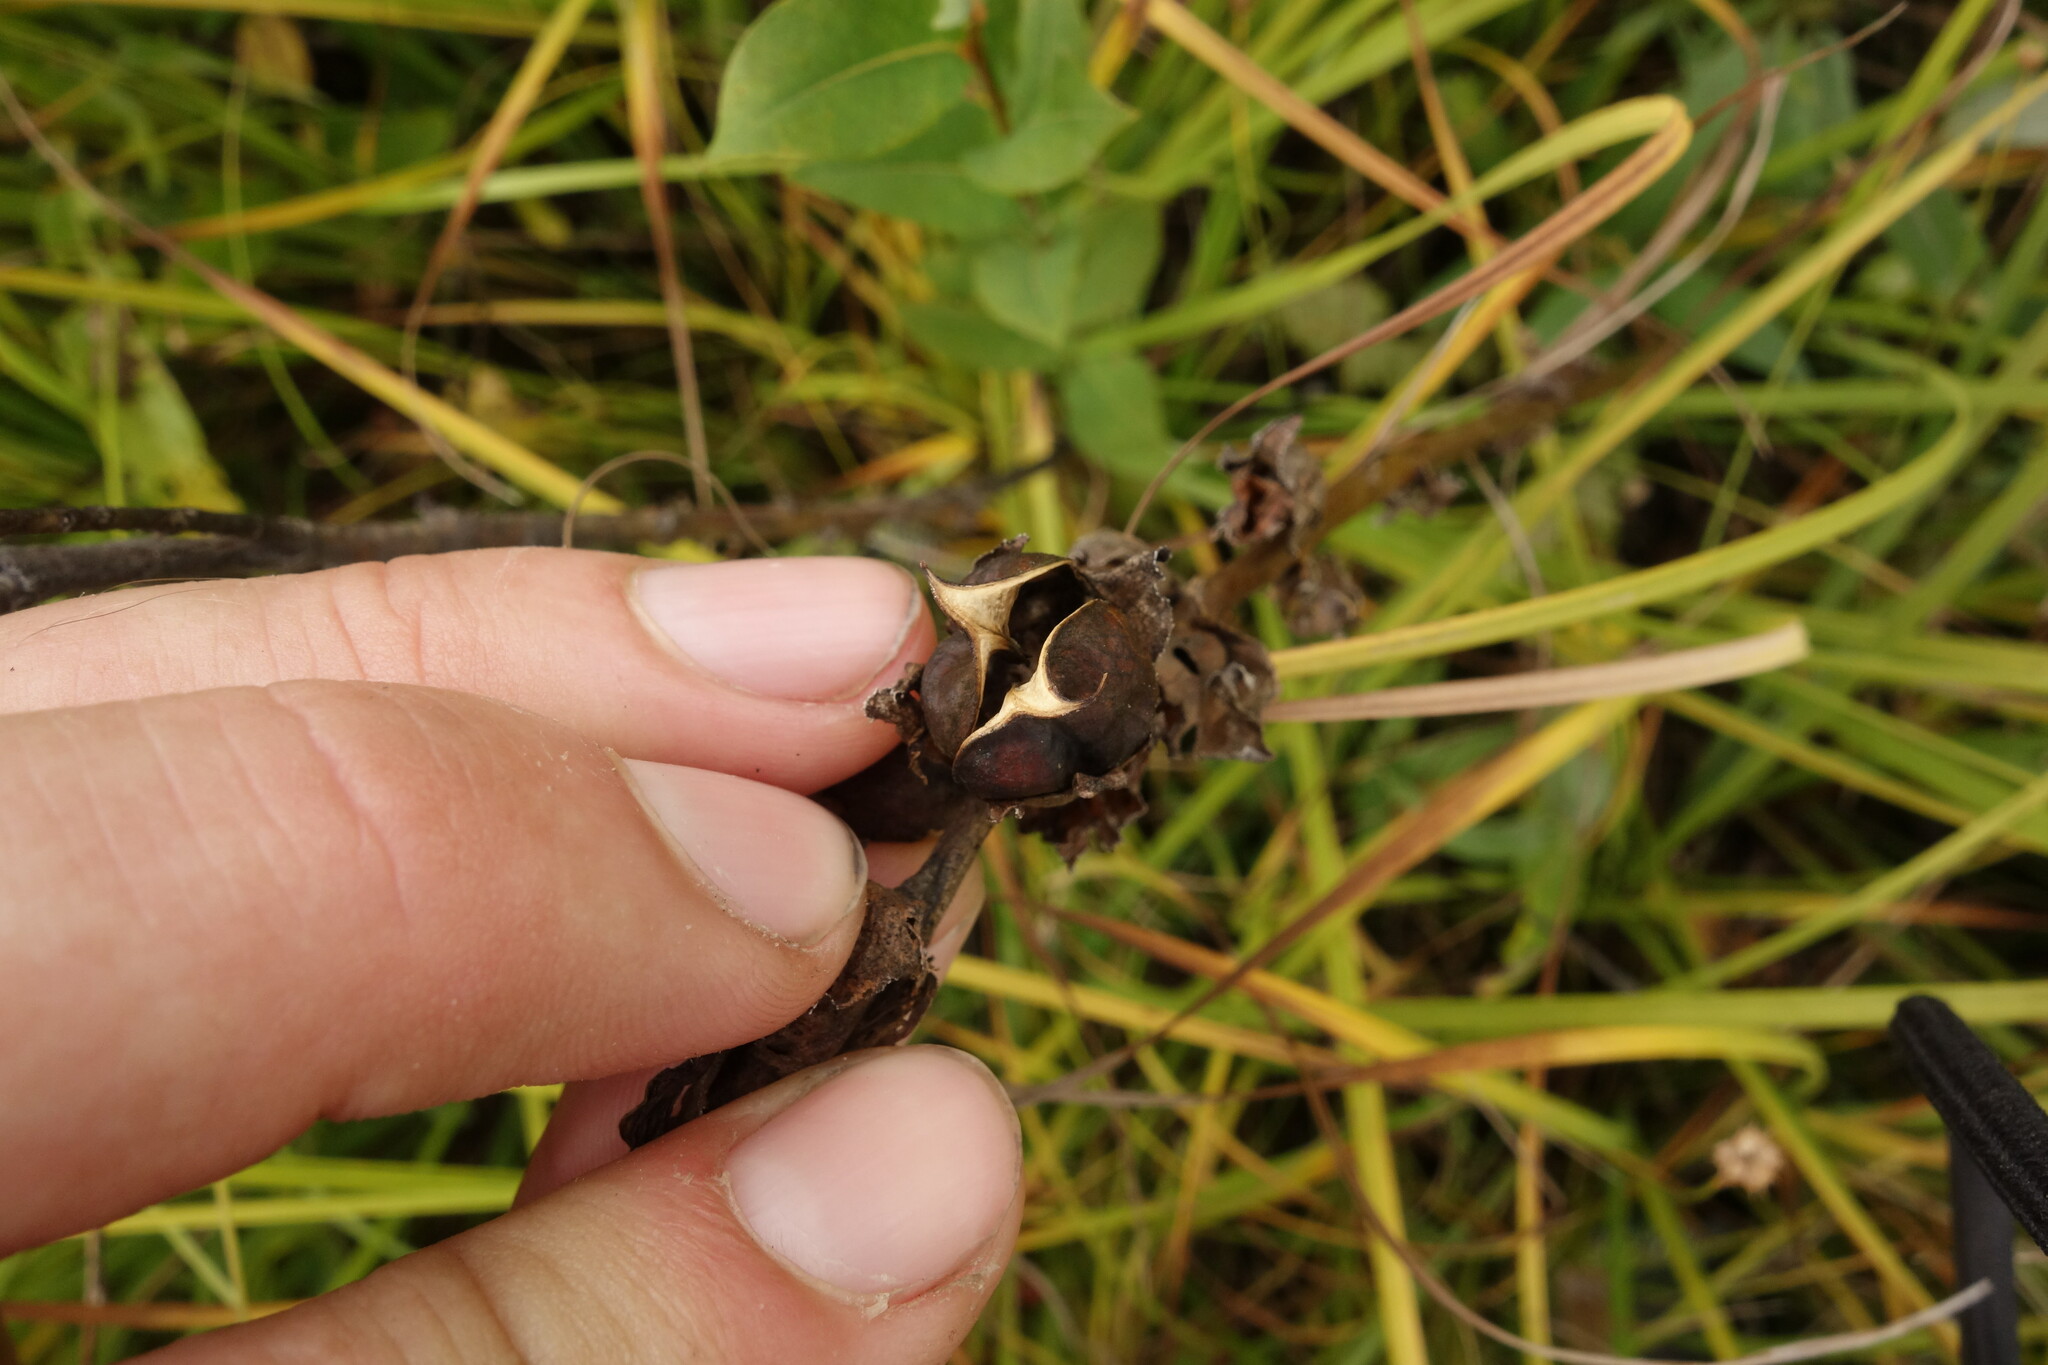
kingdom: Plantae
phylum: Tracheophyta
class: Magnoliopsida
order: Lamiales
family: Orobanchaceae
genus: Pedicularis
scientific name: Pedicularis sceptrum-carolinum
